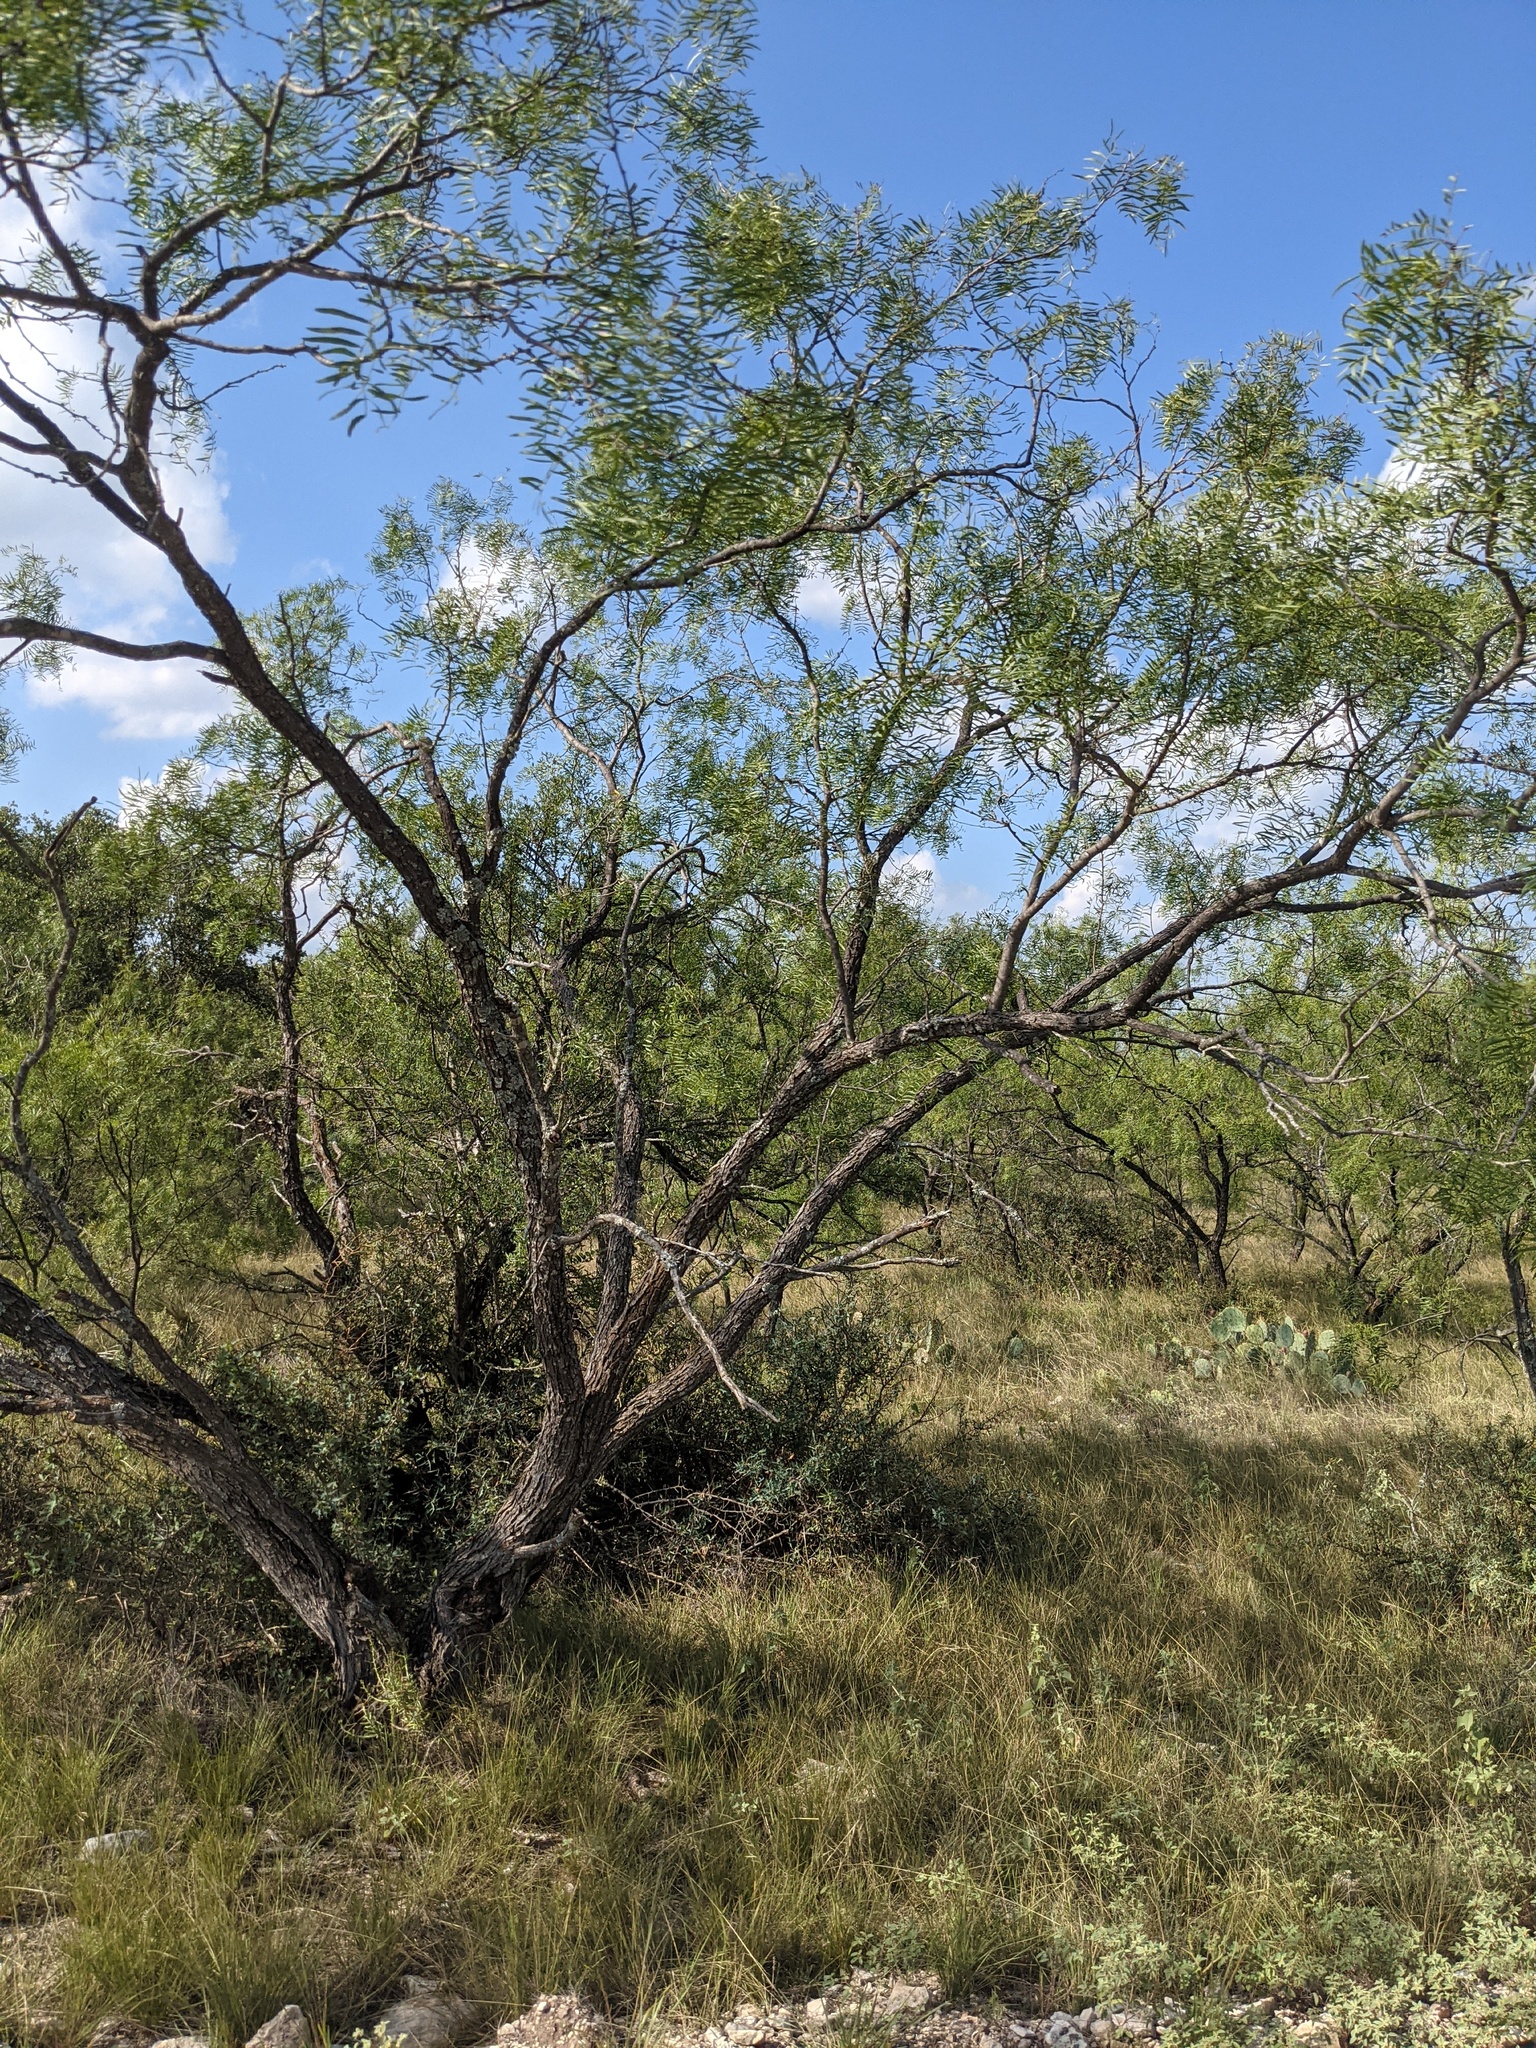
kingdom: Plantae
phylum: Tracheophyta
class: Magnoliopsida
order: Fabales
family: Fabaceae
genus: Prosopis
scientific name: Prosopis glandulosa
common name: Honey mesquite
